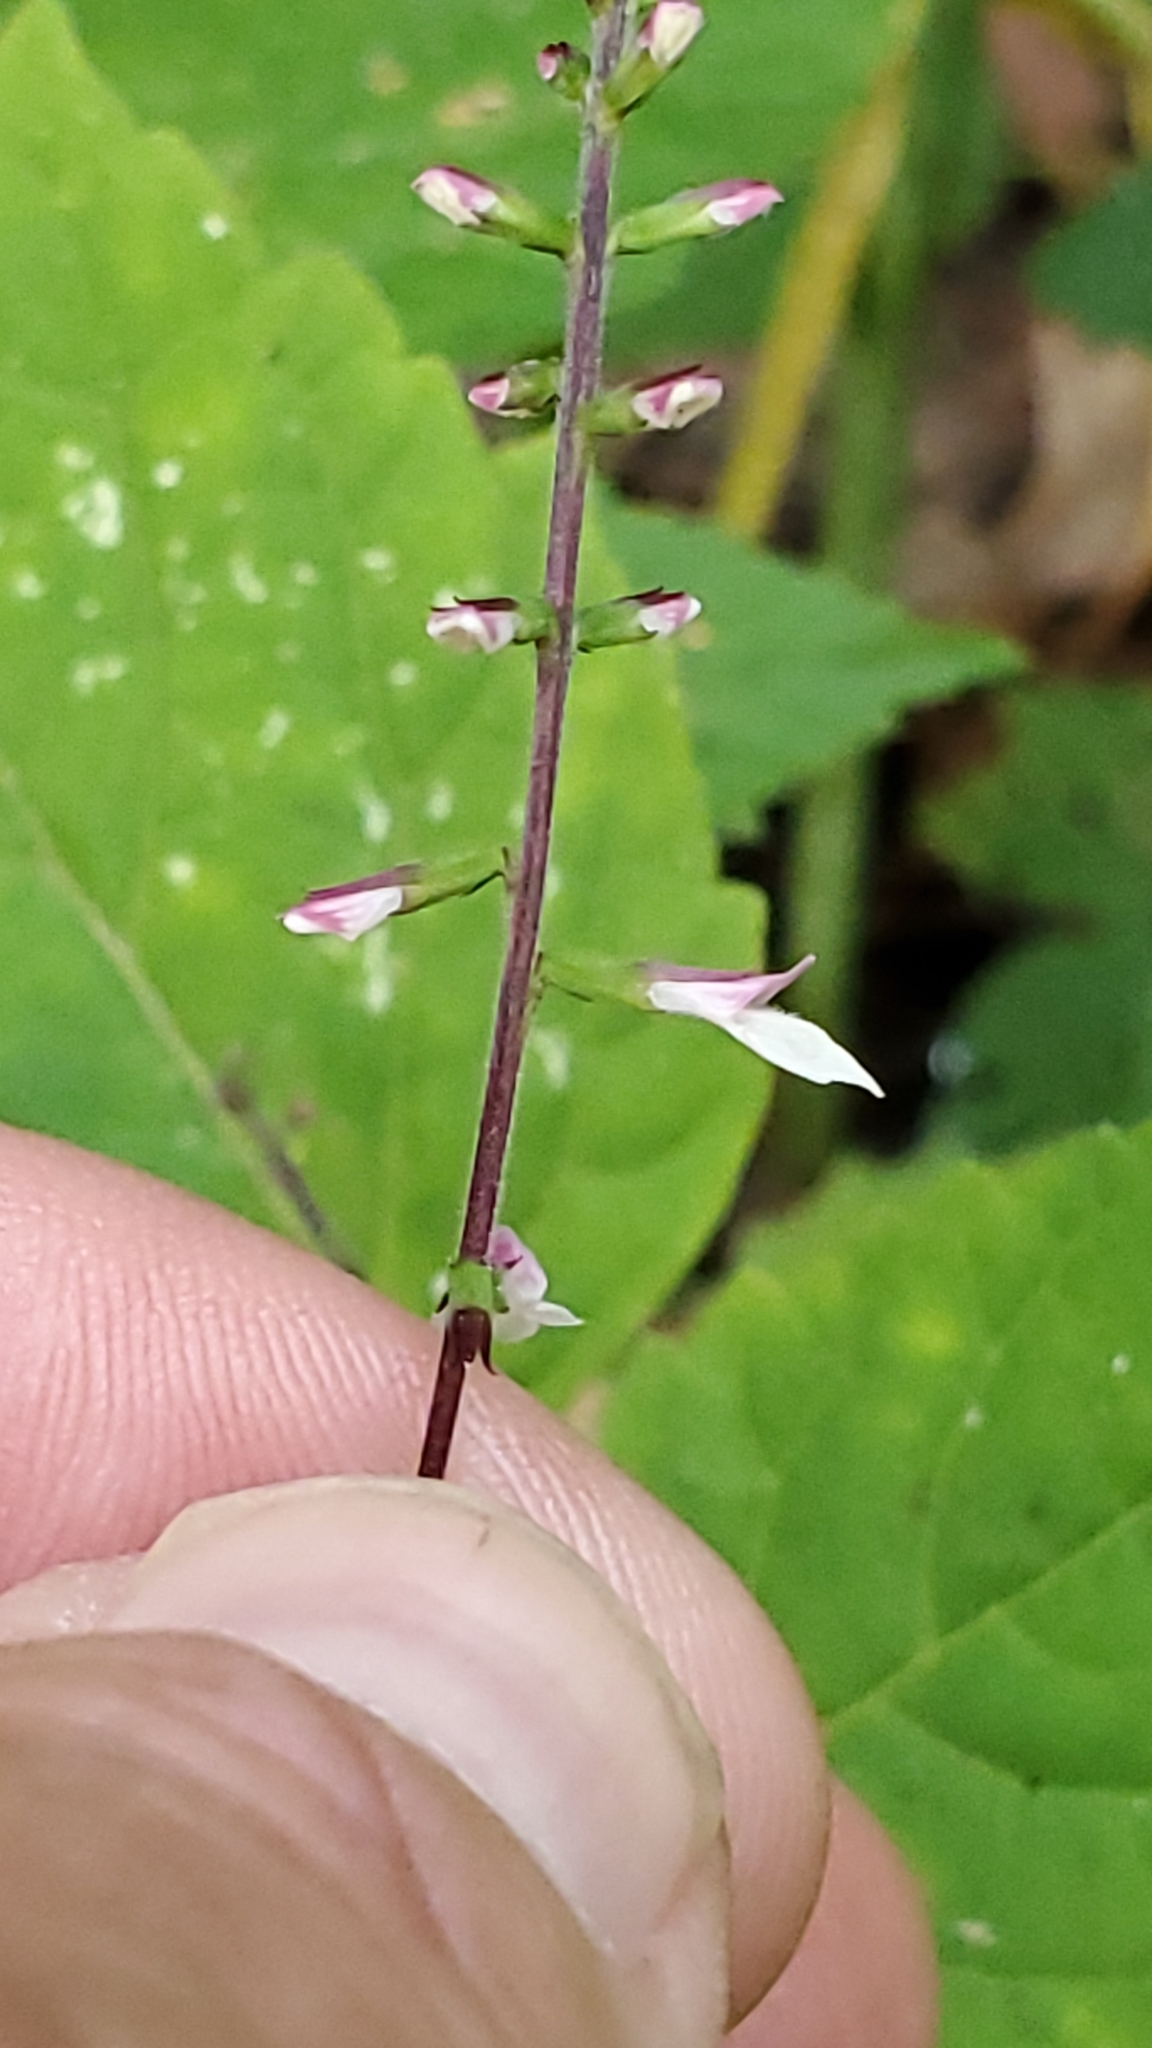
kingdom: Plantae
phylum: Tracheophyta
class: Magnoliopsida
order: Lamiales
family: Phrymaceae
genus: Phryma
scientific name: Phryma leptostachya
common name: American lopseed
